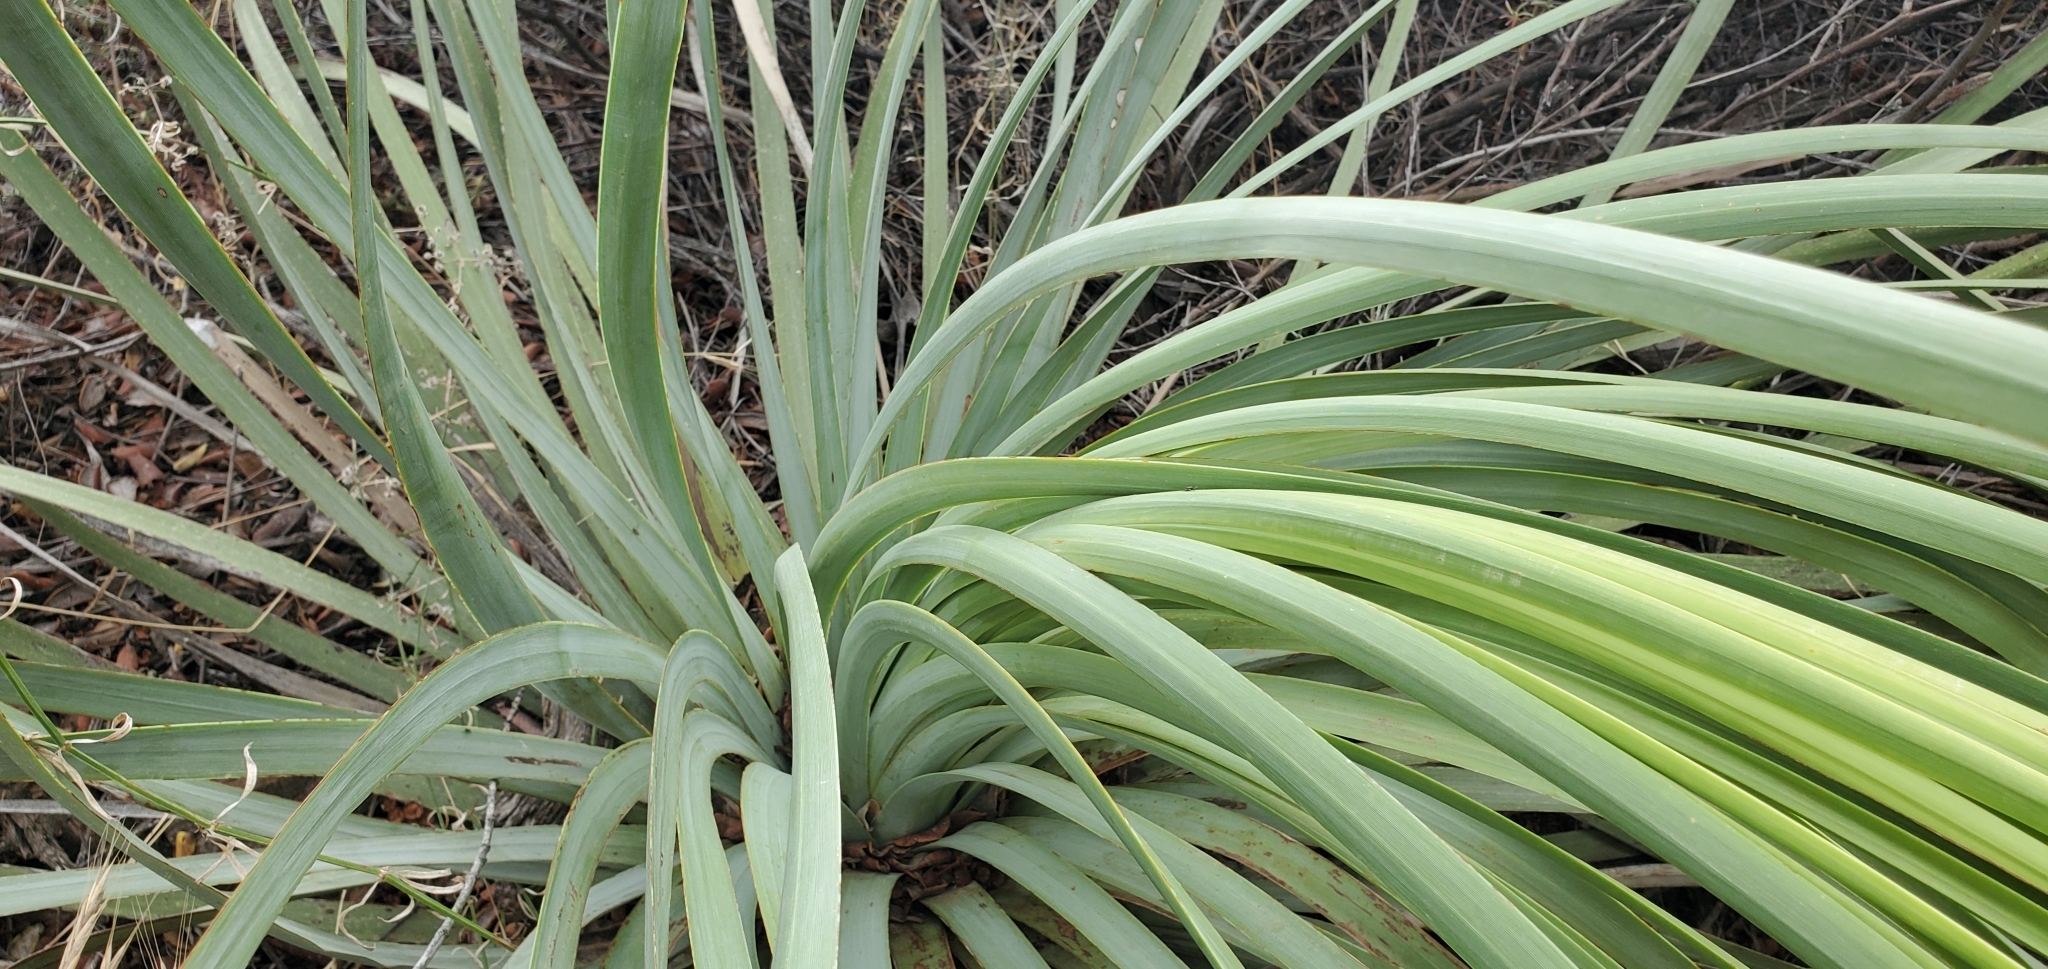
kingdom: Plantae
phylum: Tracheophyta
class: Liliopsida
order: Asparagales
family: Asparagaceae
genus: Hesperoyucca
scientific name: Hesperoyucca whipplei
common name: Our lord's-candle
